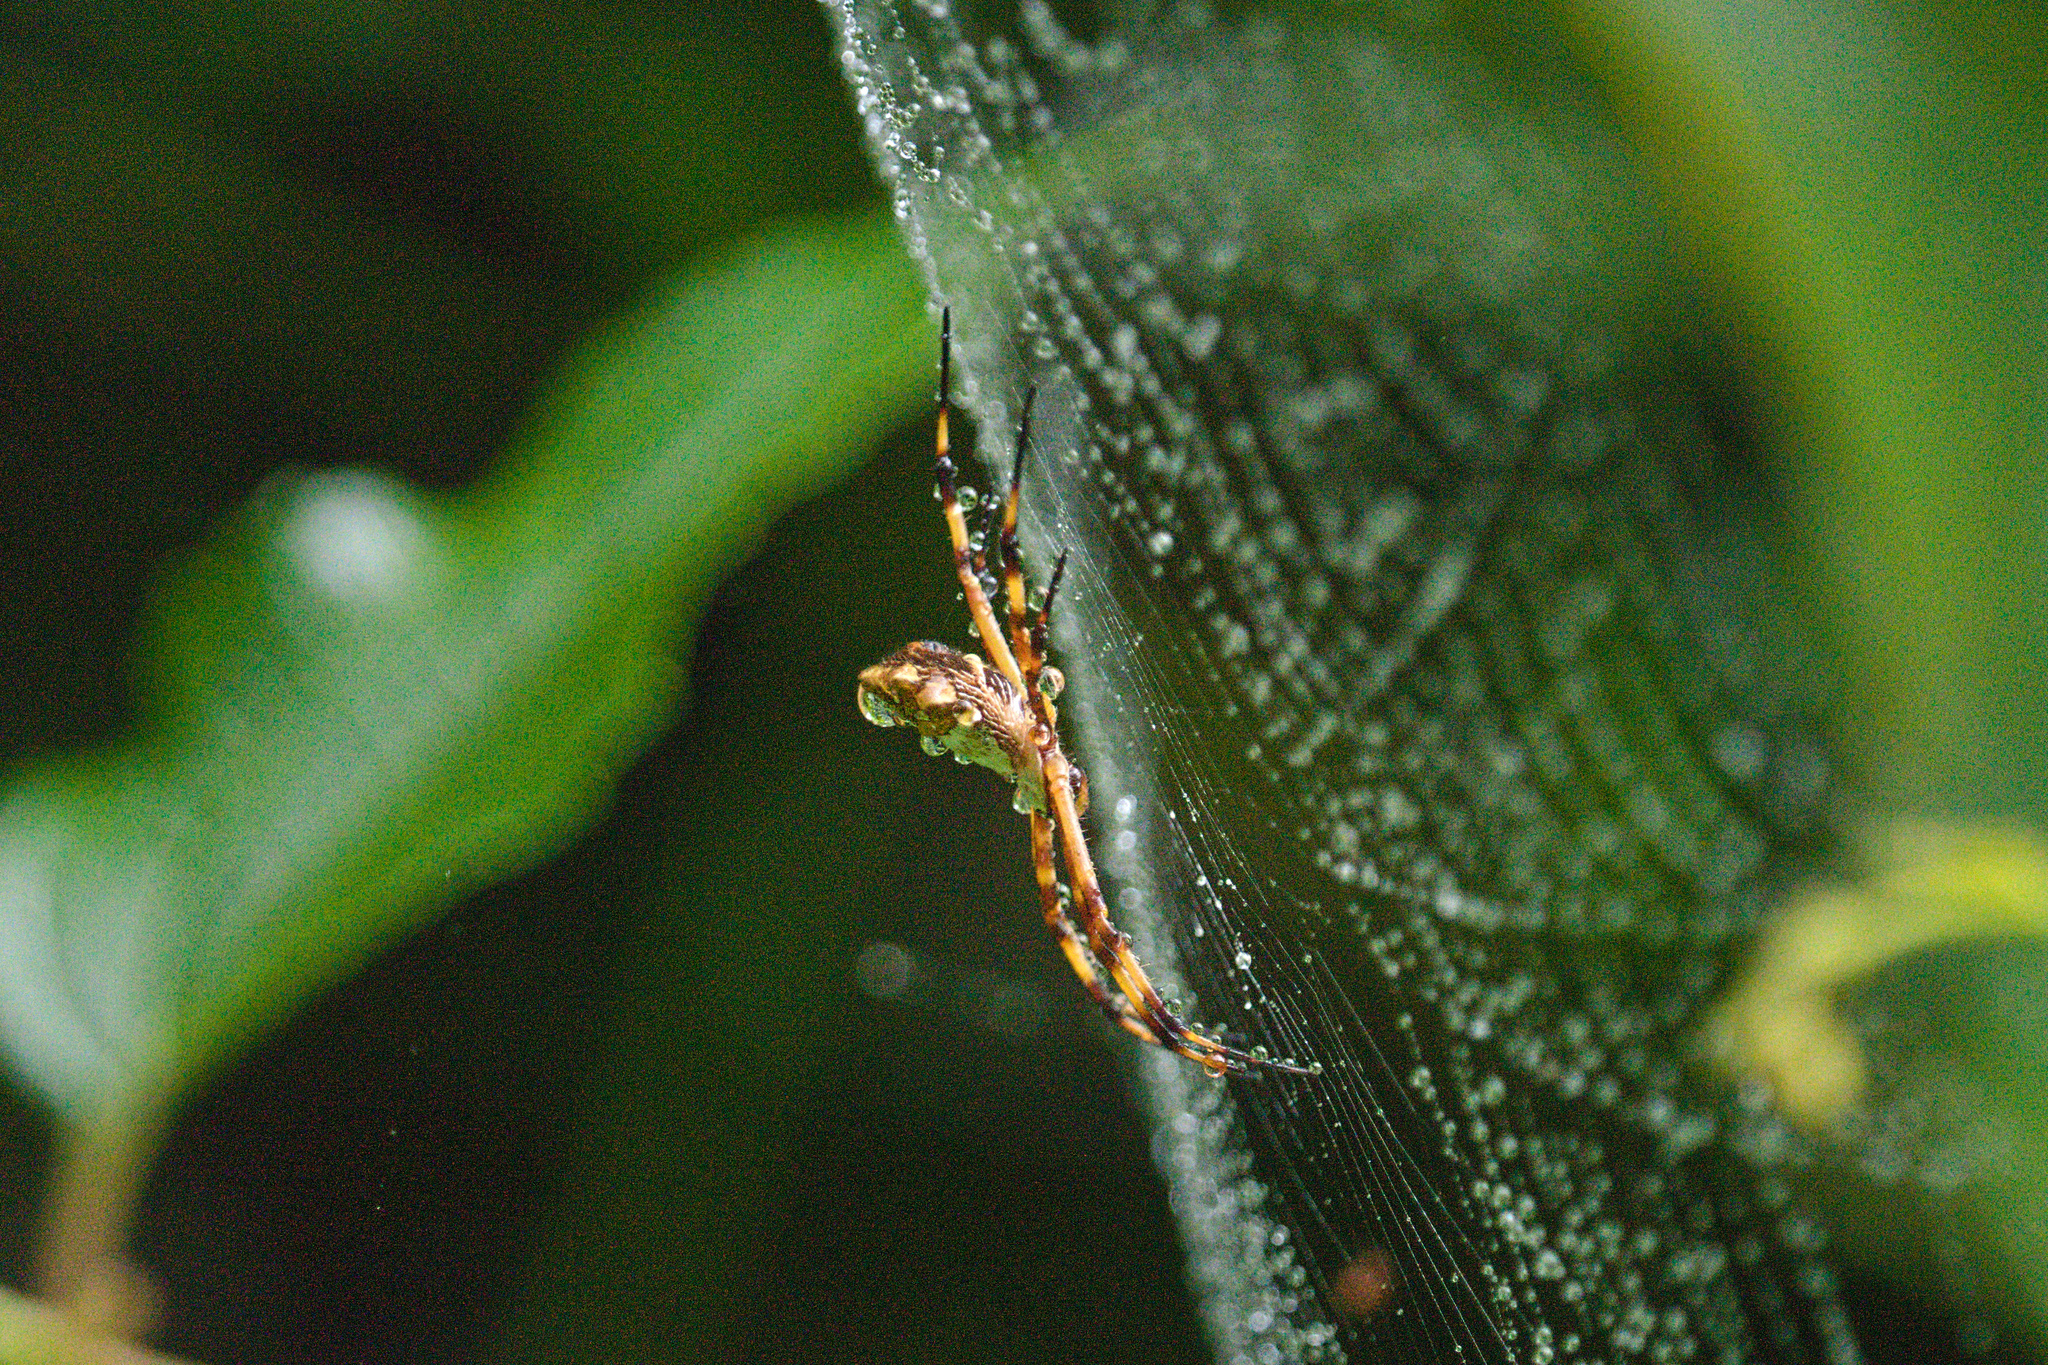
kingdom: Animalia
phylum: Arthropoda
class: Arachnida
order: Araneae
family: Araneidae
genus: Argiope
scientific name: Argiope argentata
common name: Orb weavers
